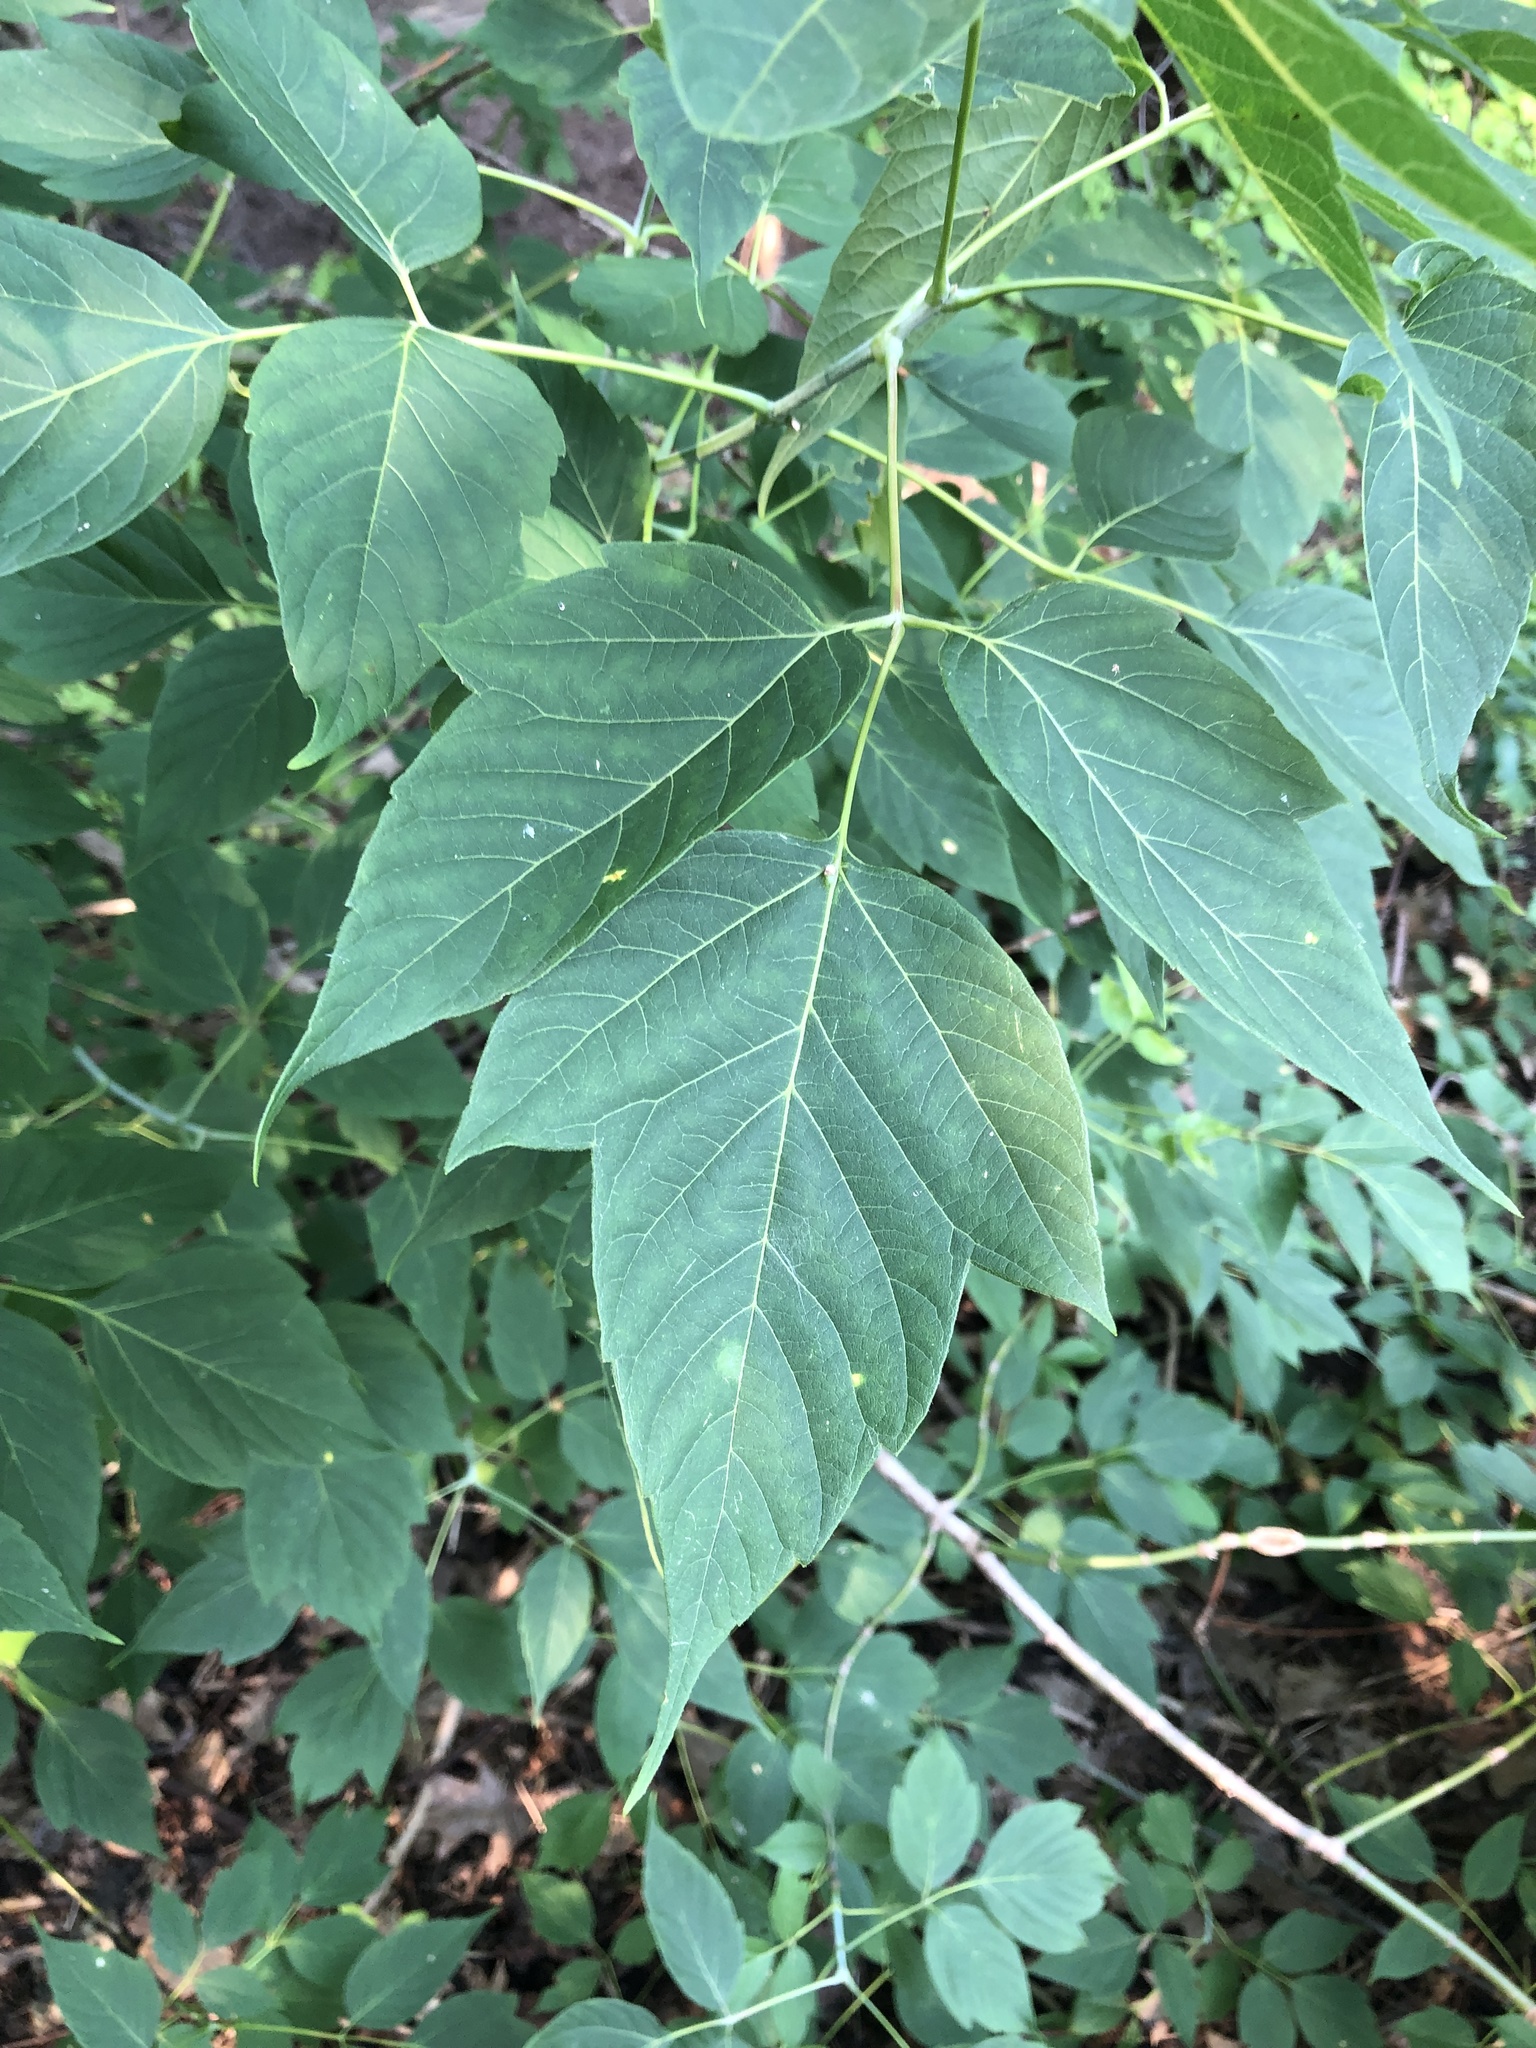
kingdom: Plantae
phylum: Tracheophyta
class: Magnoliopsida
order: Sapindales
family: Sapindaceae
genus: Acer
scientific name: Acer negundo
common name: Ashleaf maple
